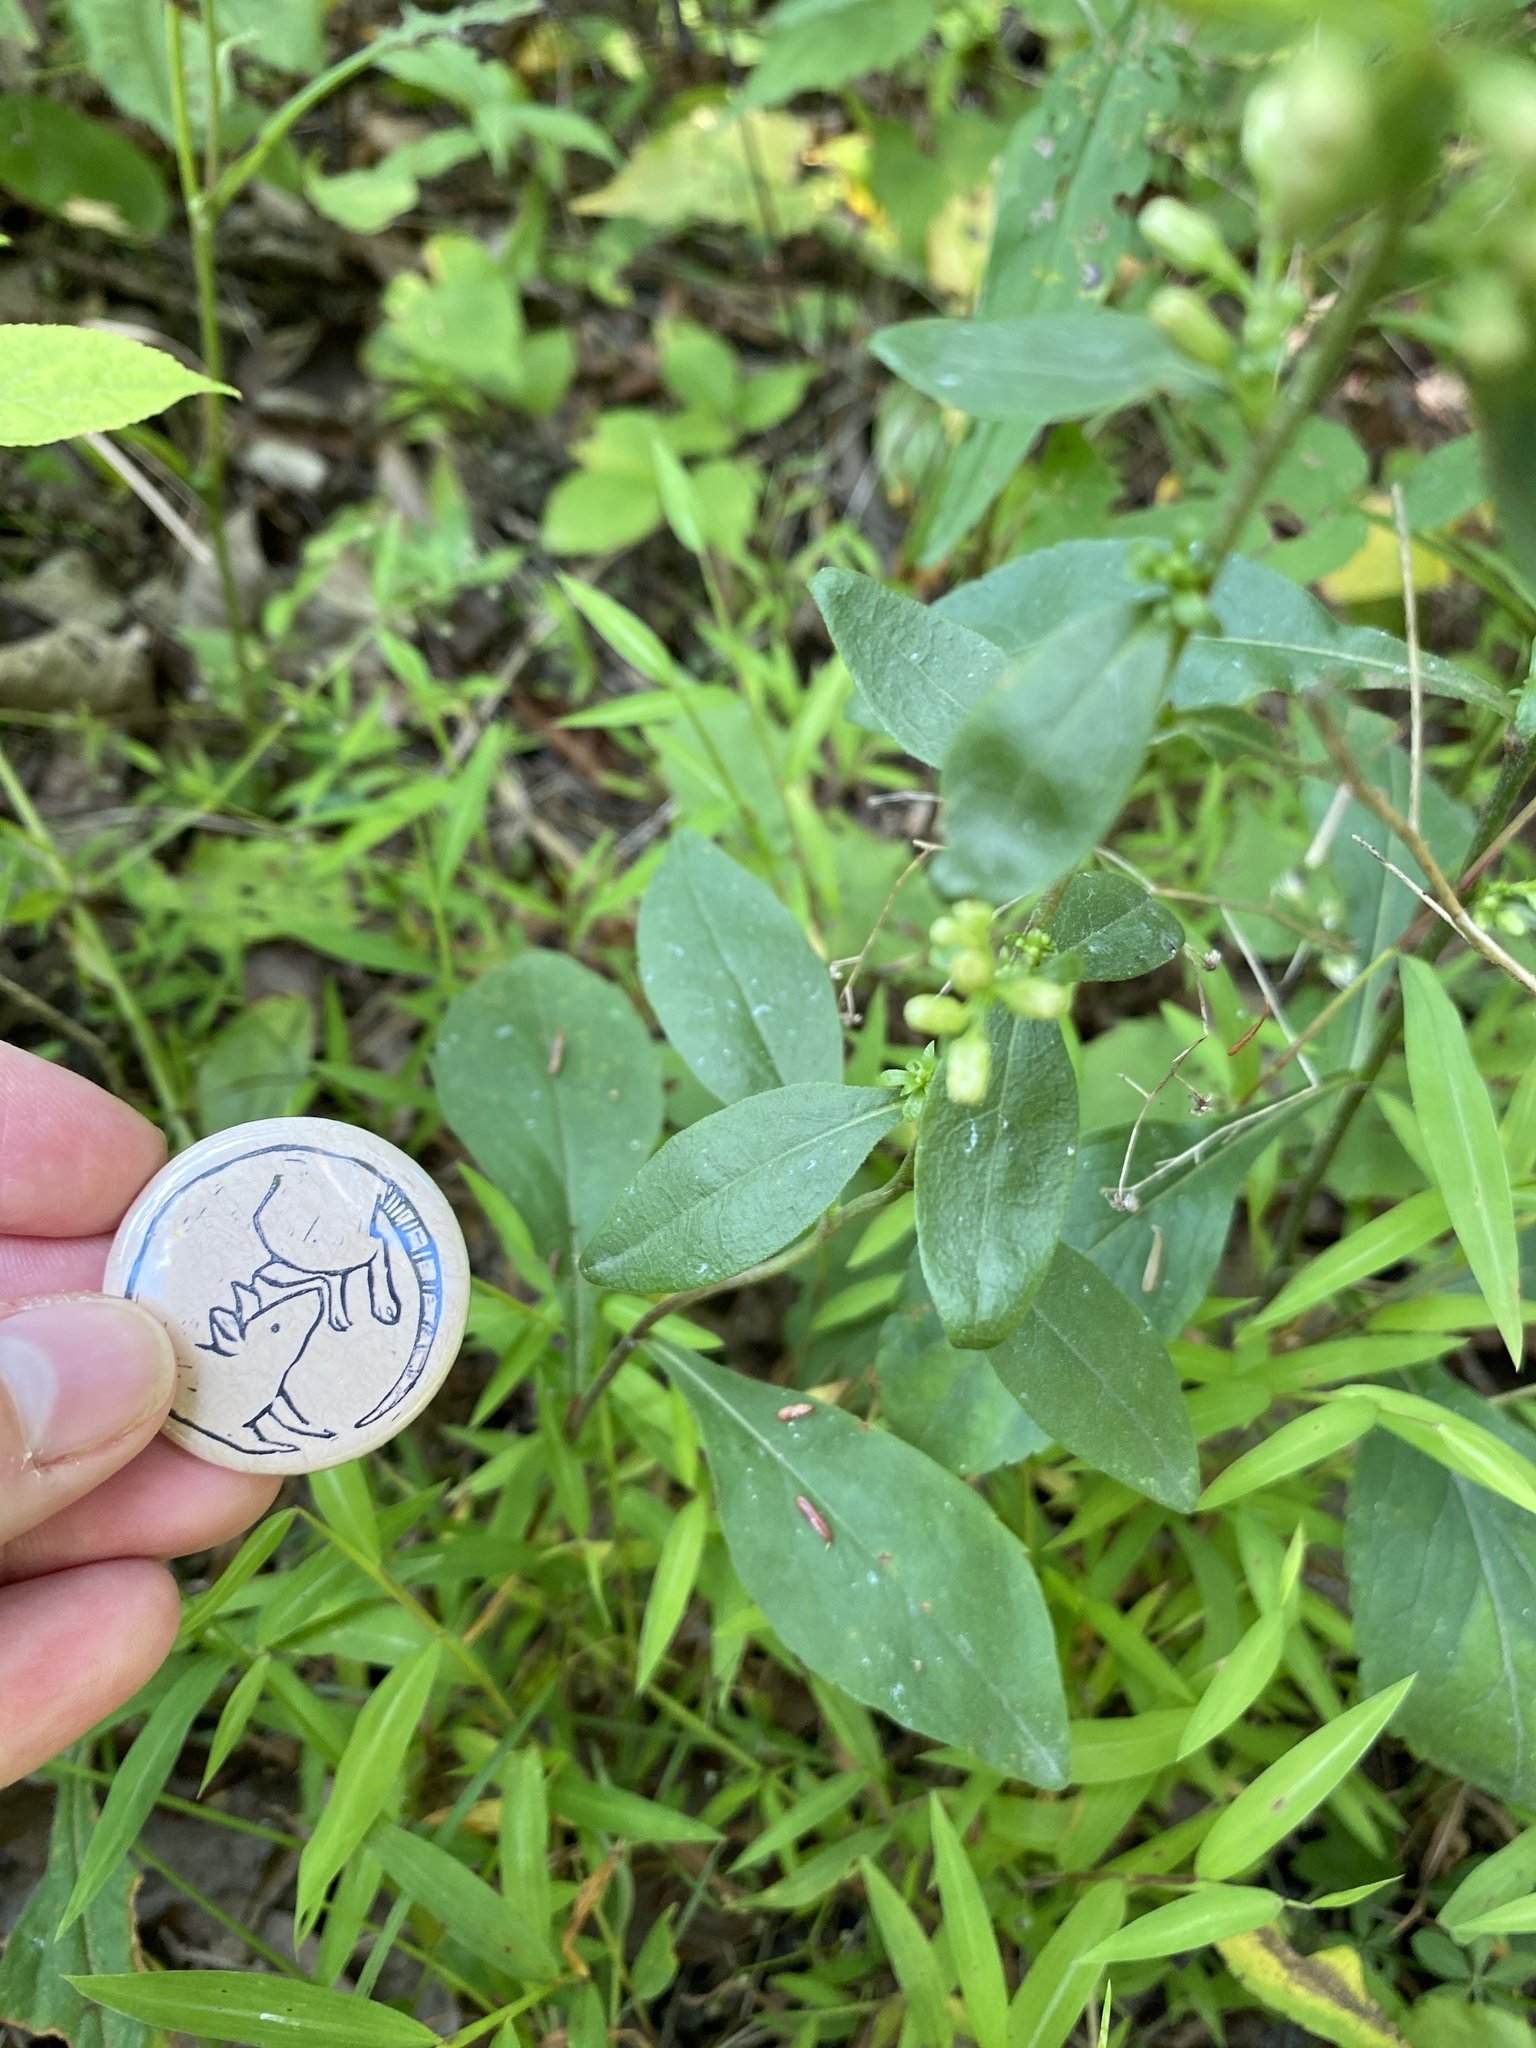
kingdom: Plantae
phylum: Tracheophyta
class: Magnoliopsida
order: Asterales
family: Asteraceae
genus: Solidago
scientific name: Solidago bicolor
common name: Silverrod
